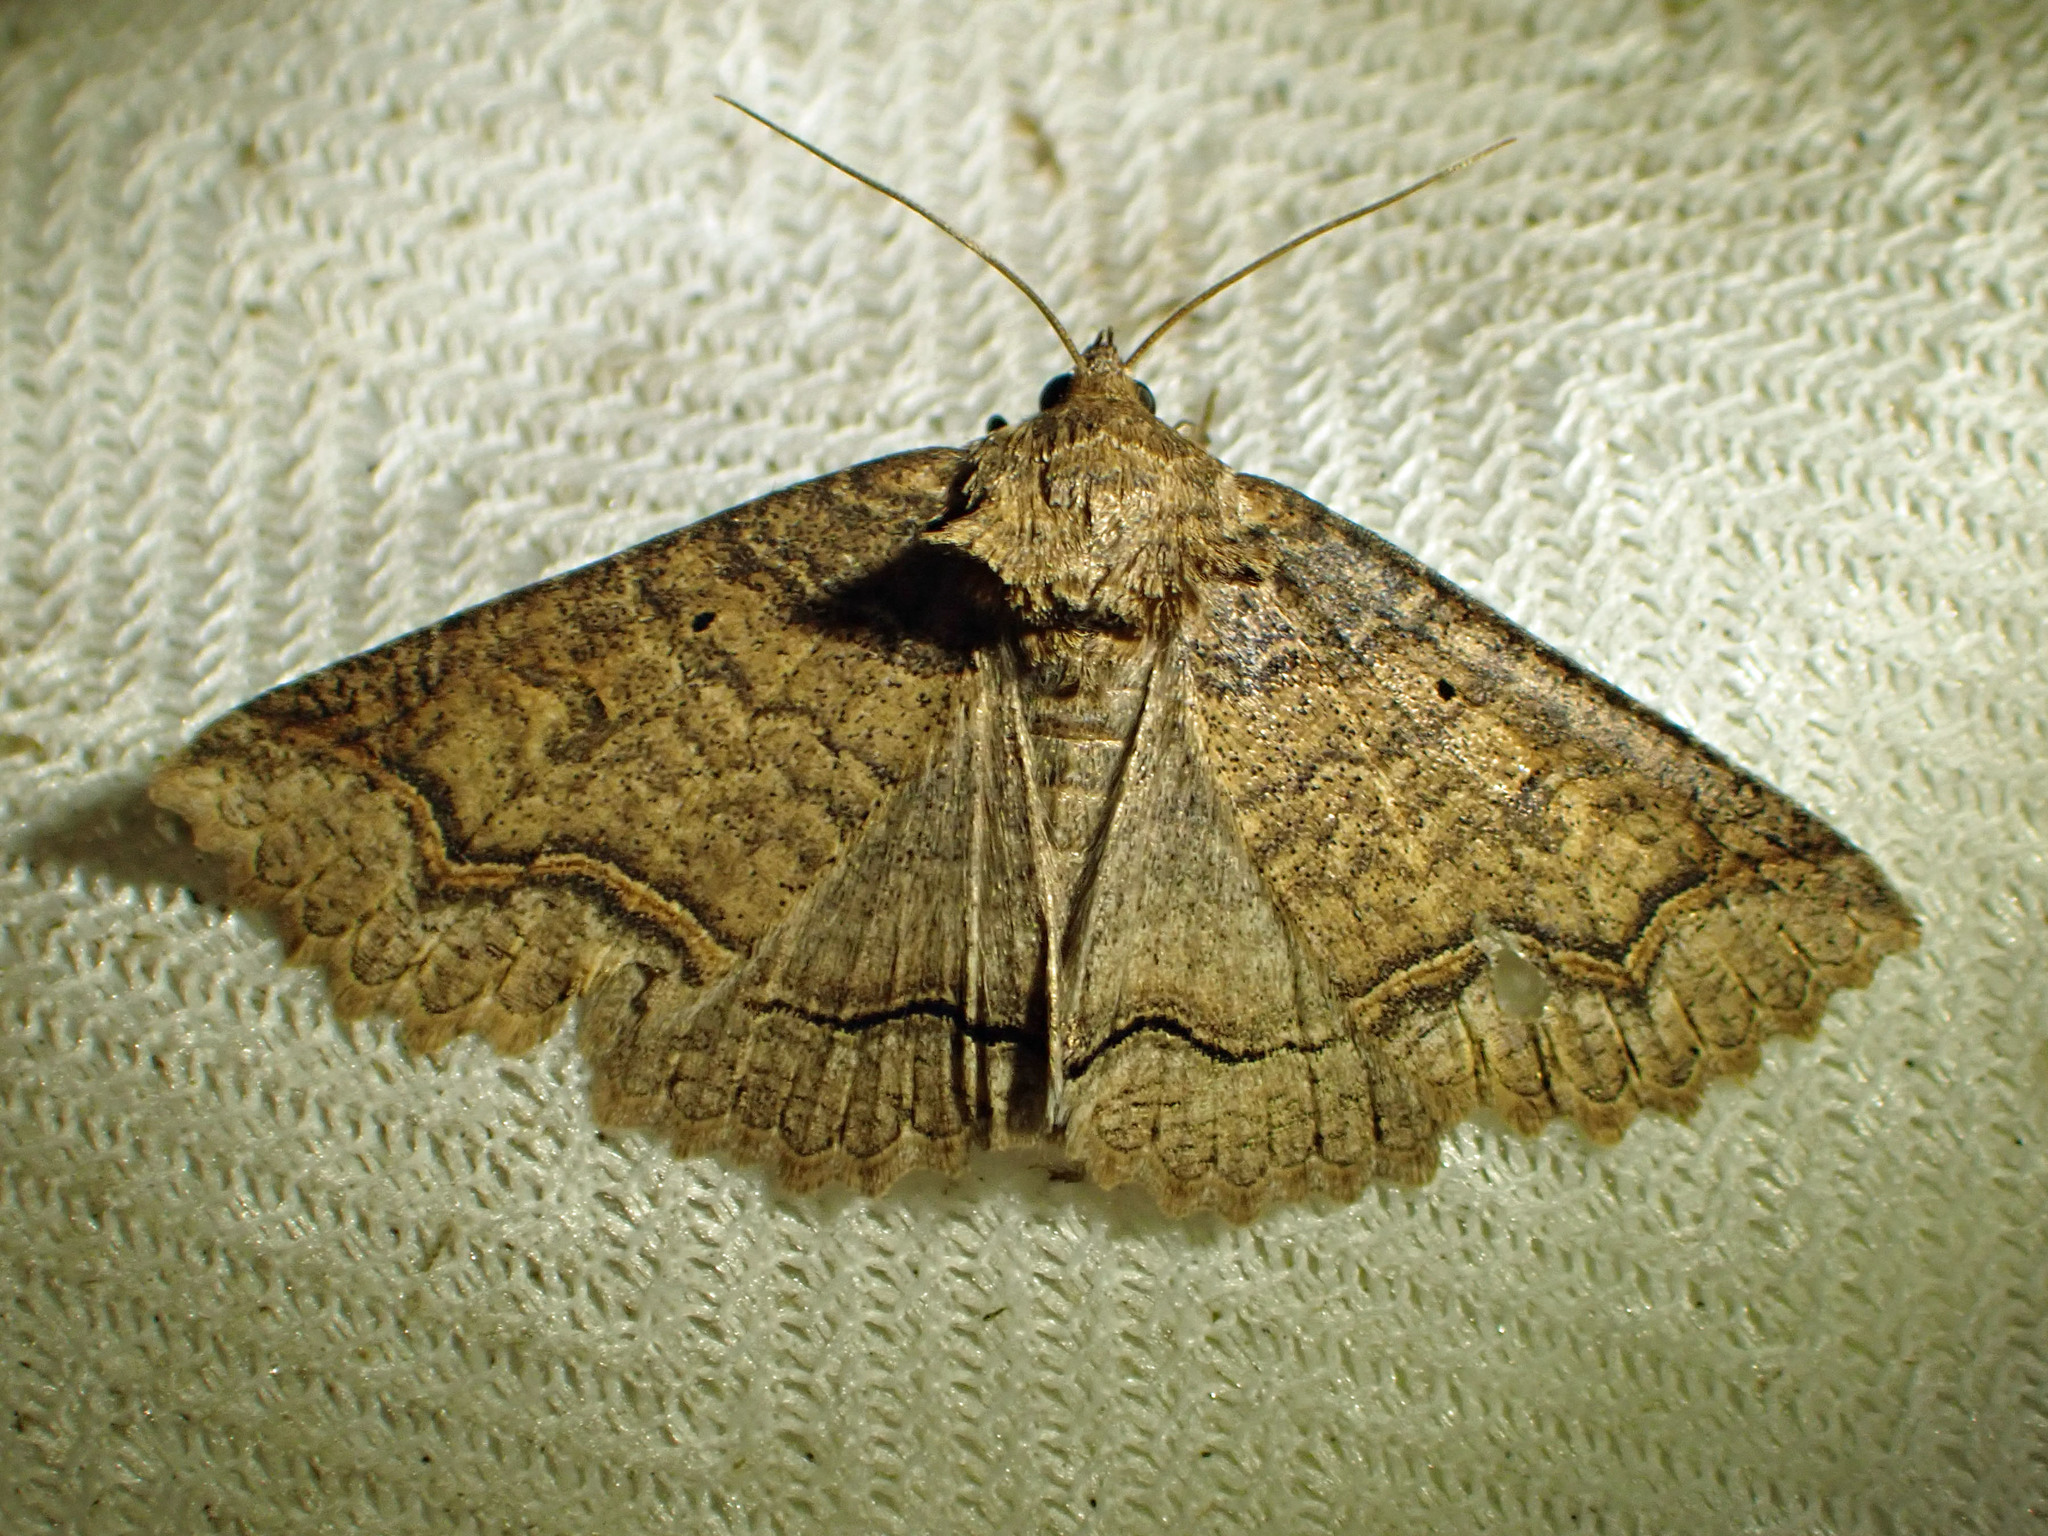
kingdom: Animalia
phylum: Arthropoda
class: Insecta
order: Lepidoptera
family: Erebidae
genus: Zale
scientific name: Zale unilineata
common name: One-lined zale moth
